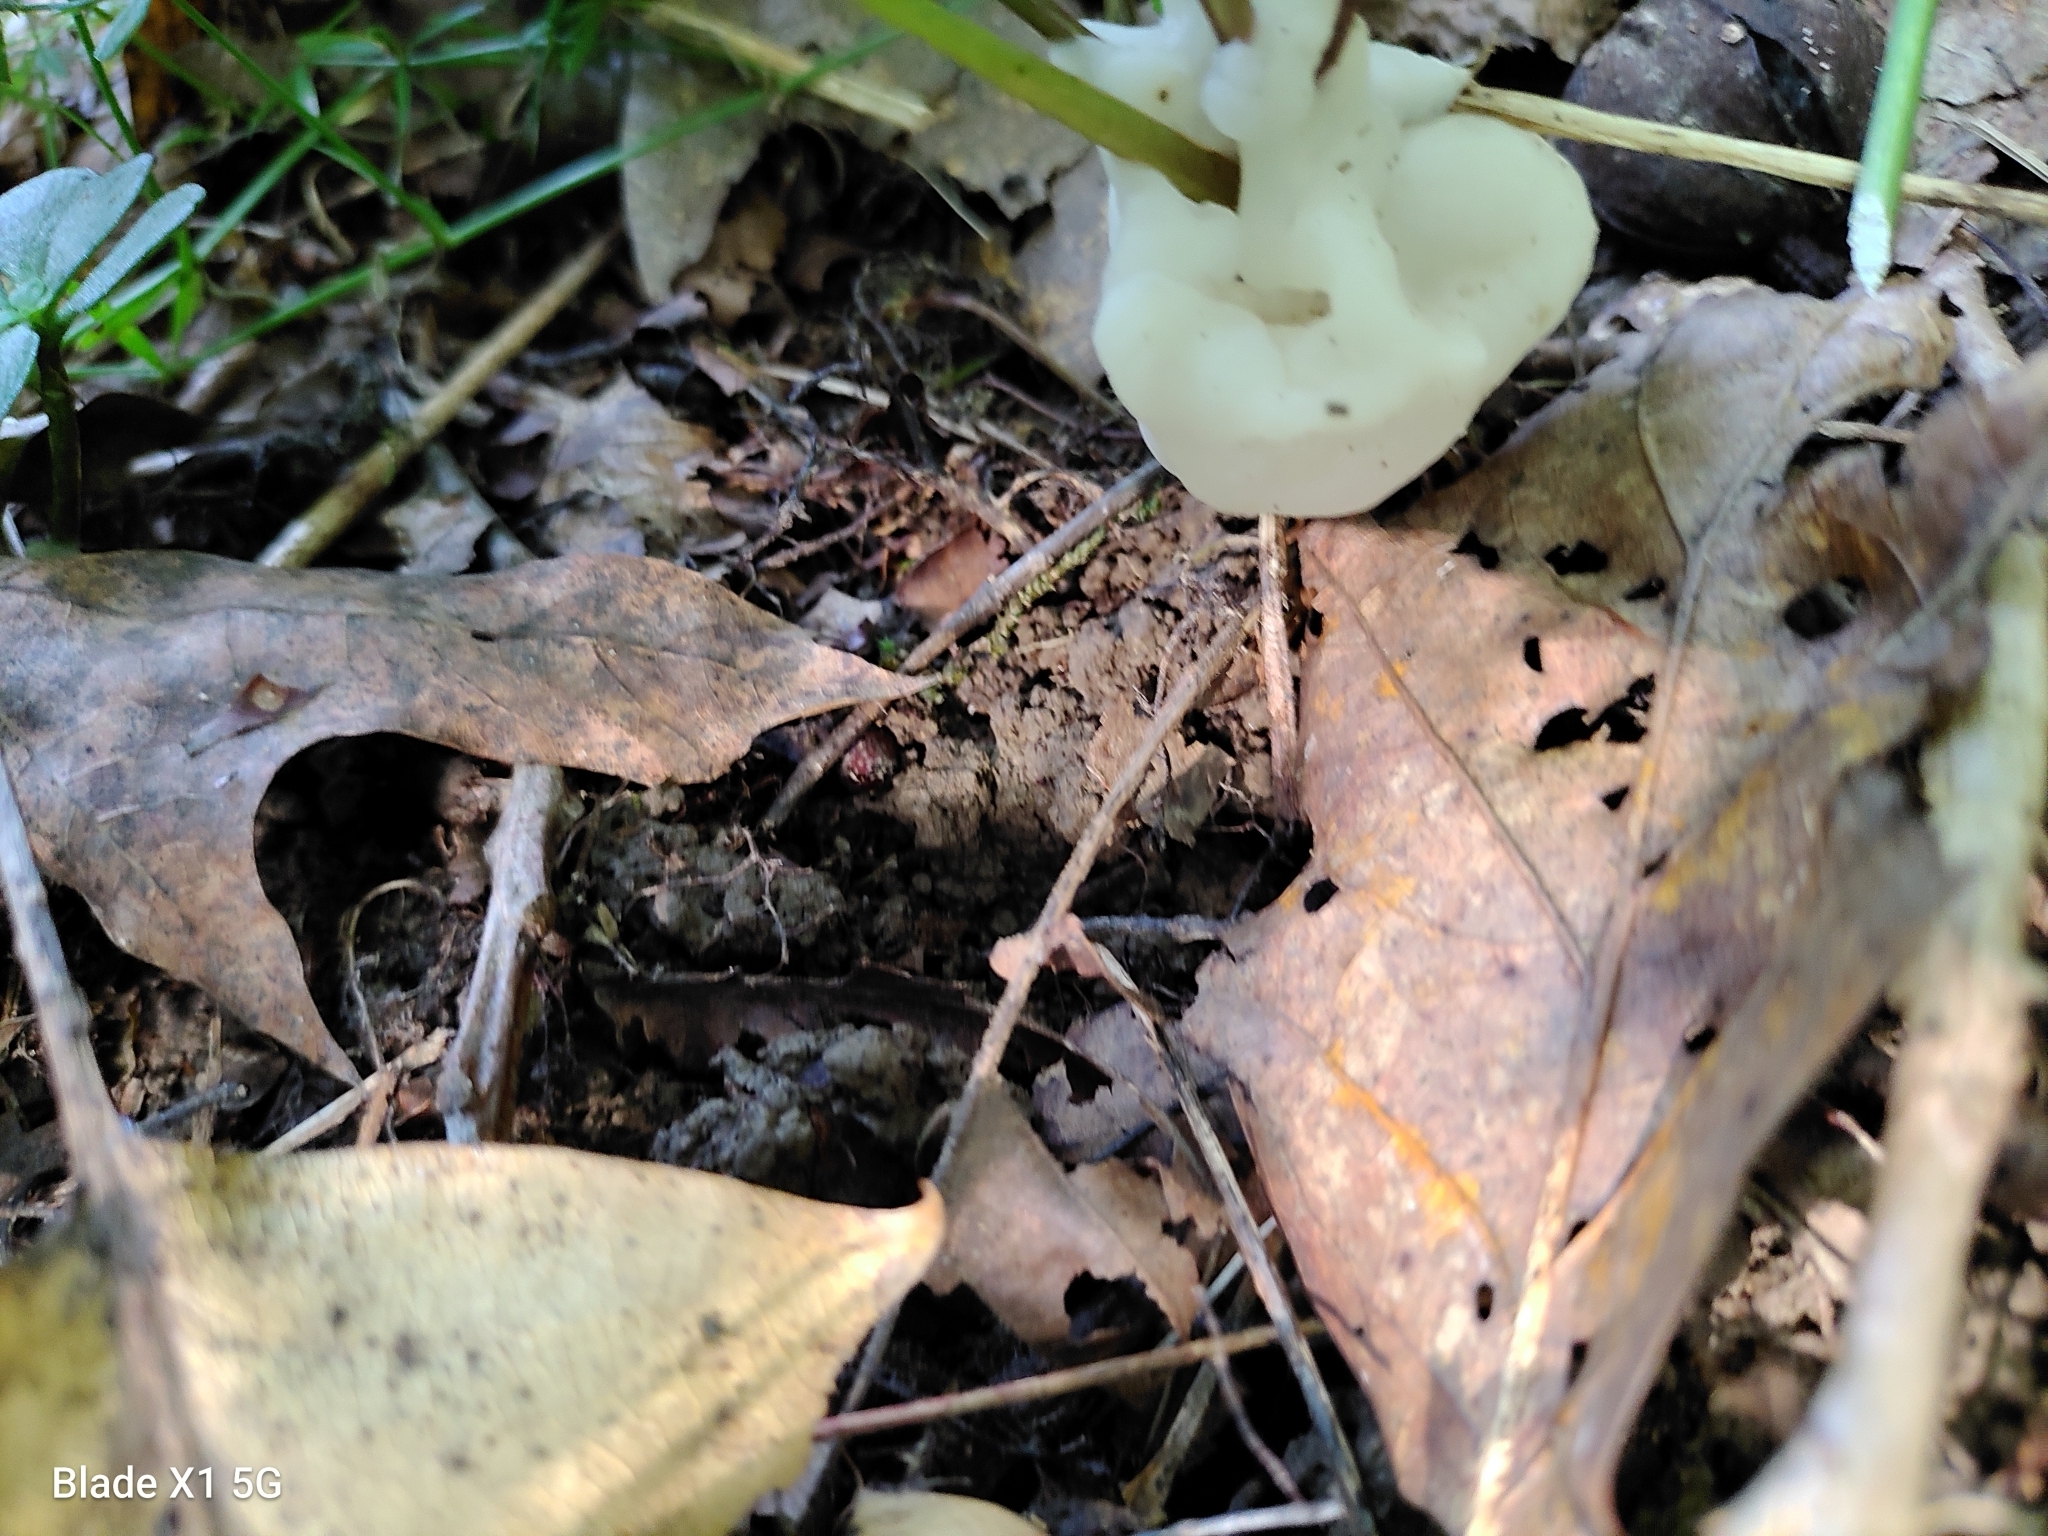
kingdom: Fungi
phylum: Basidiomycota
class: Agaricomycetes
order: Sebacinales
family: Sebacinaceae
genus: Helvellosebacina
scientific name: Helvellosebacina concrescens
